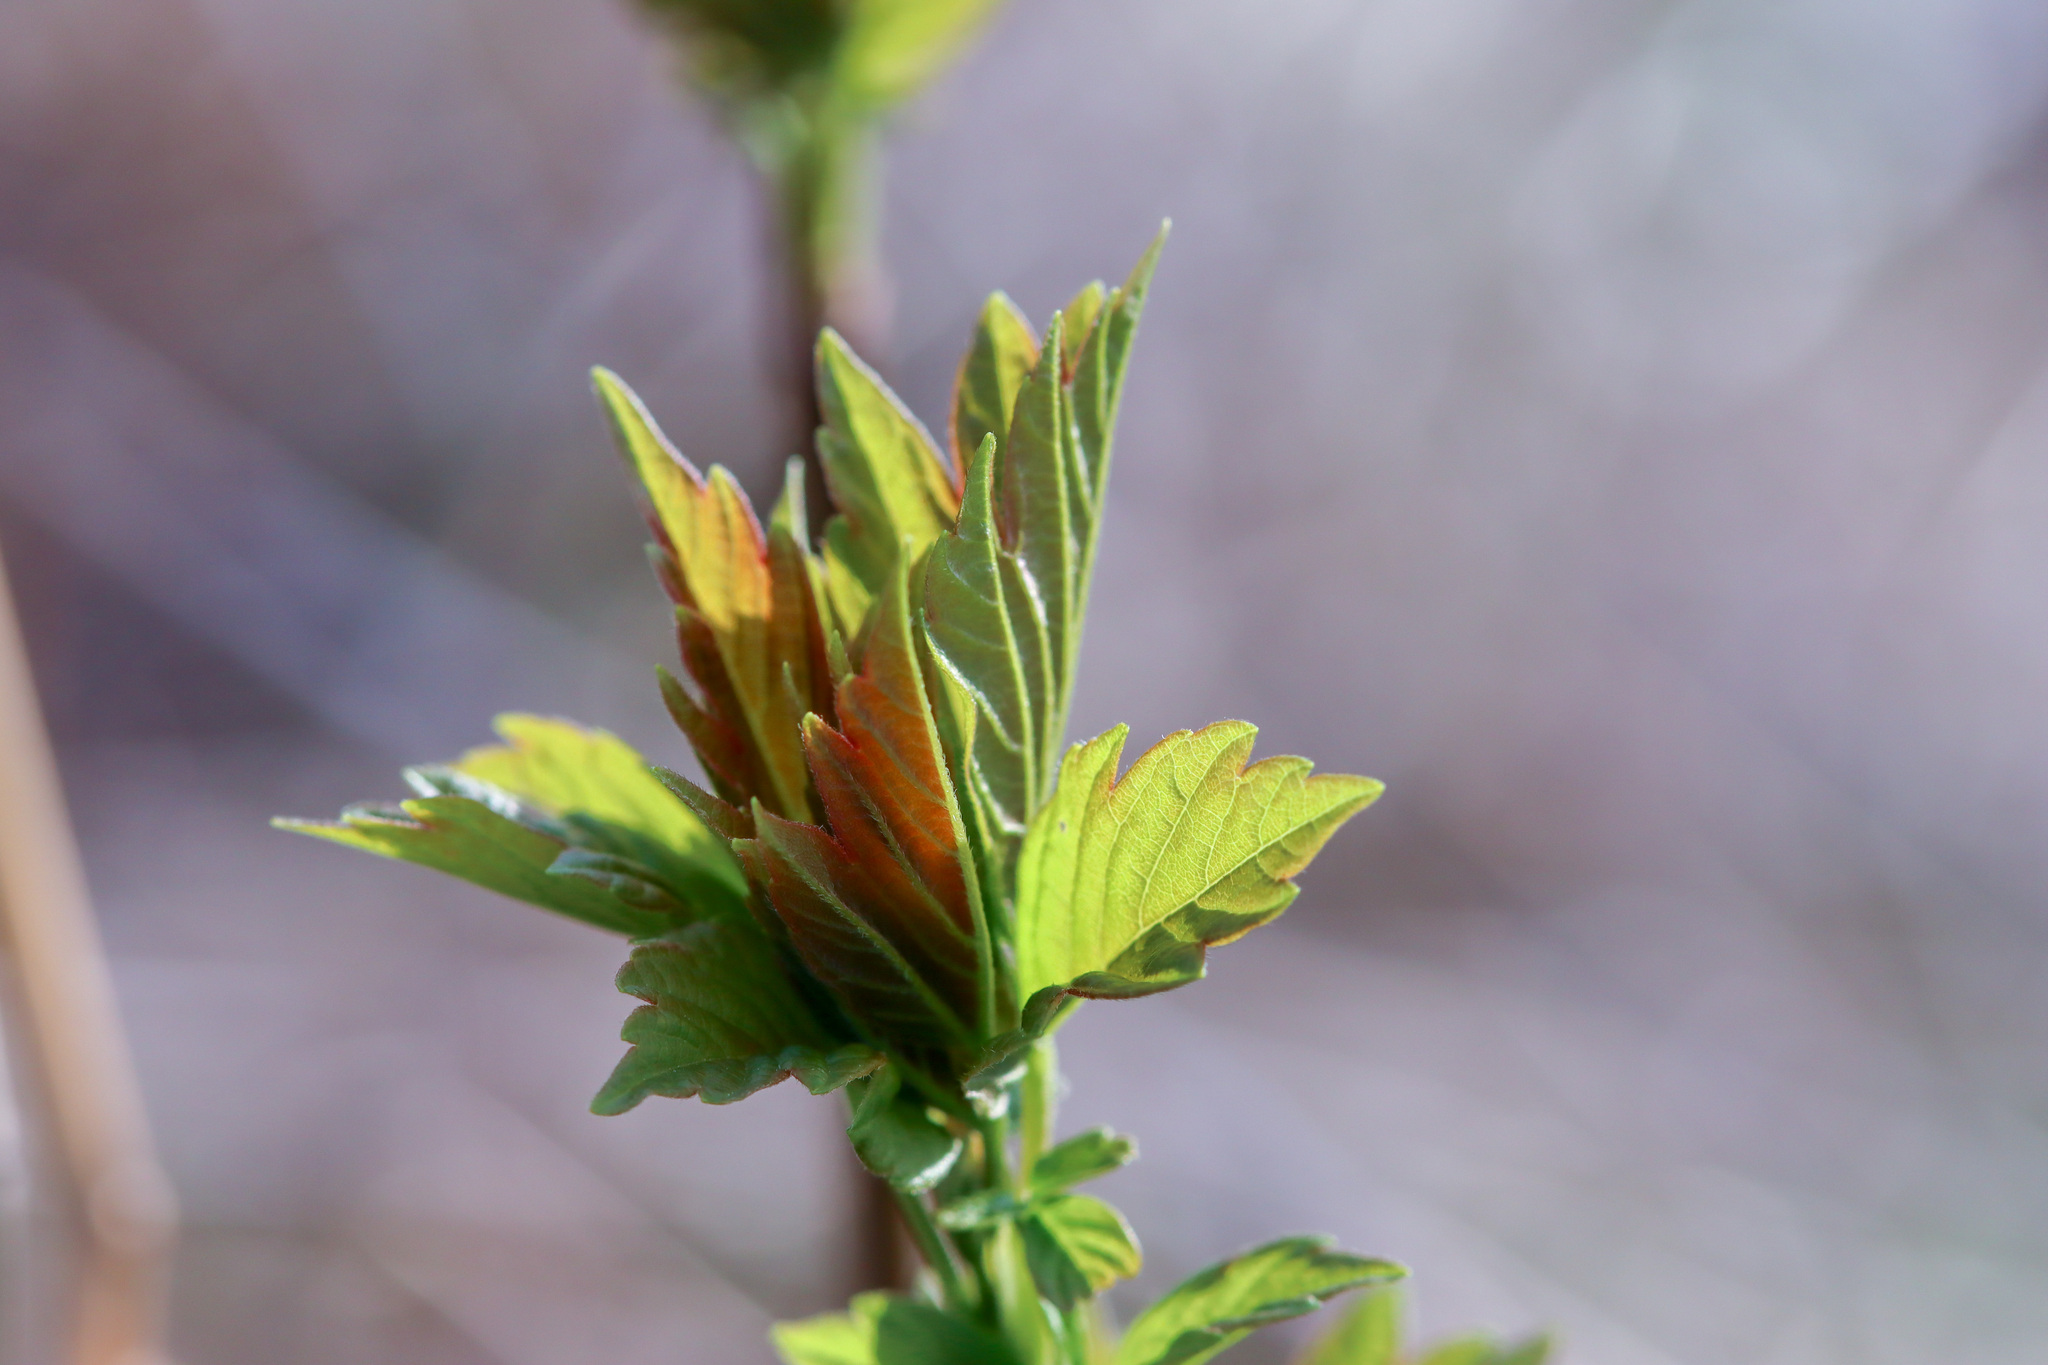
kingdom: Plantae
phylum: Tracheophyta
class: Magnoliopsida
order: Sapindales
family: Sapindaceae
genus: Acer
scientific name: Acer negundo
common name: Ashleaf maple
